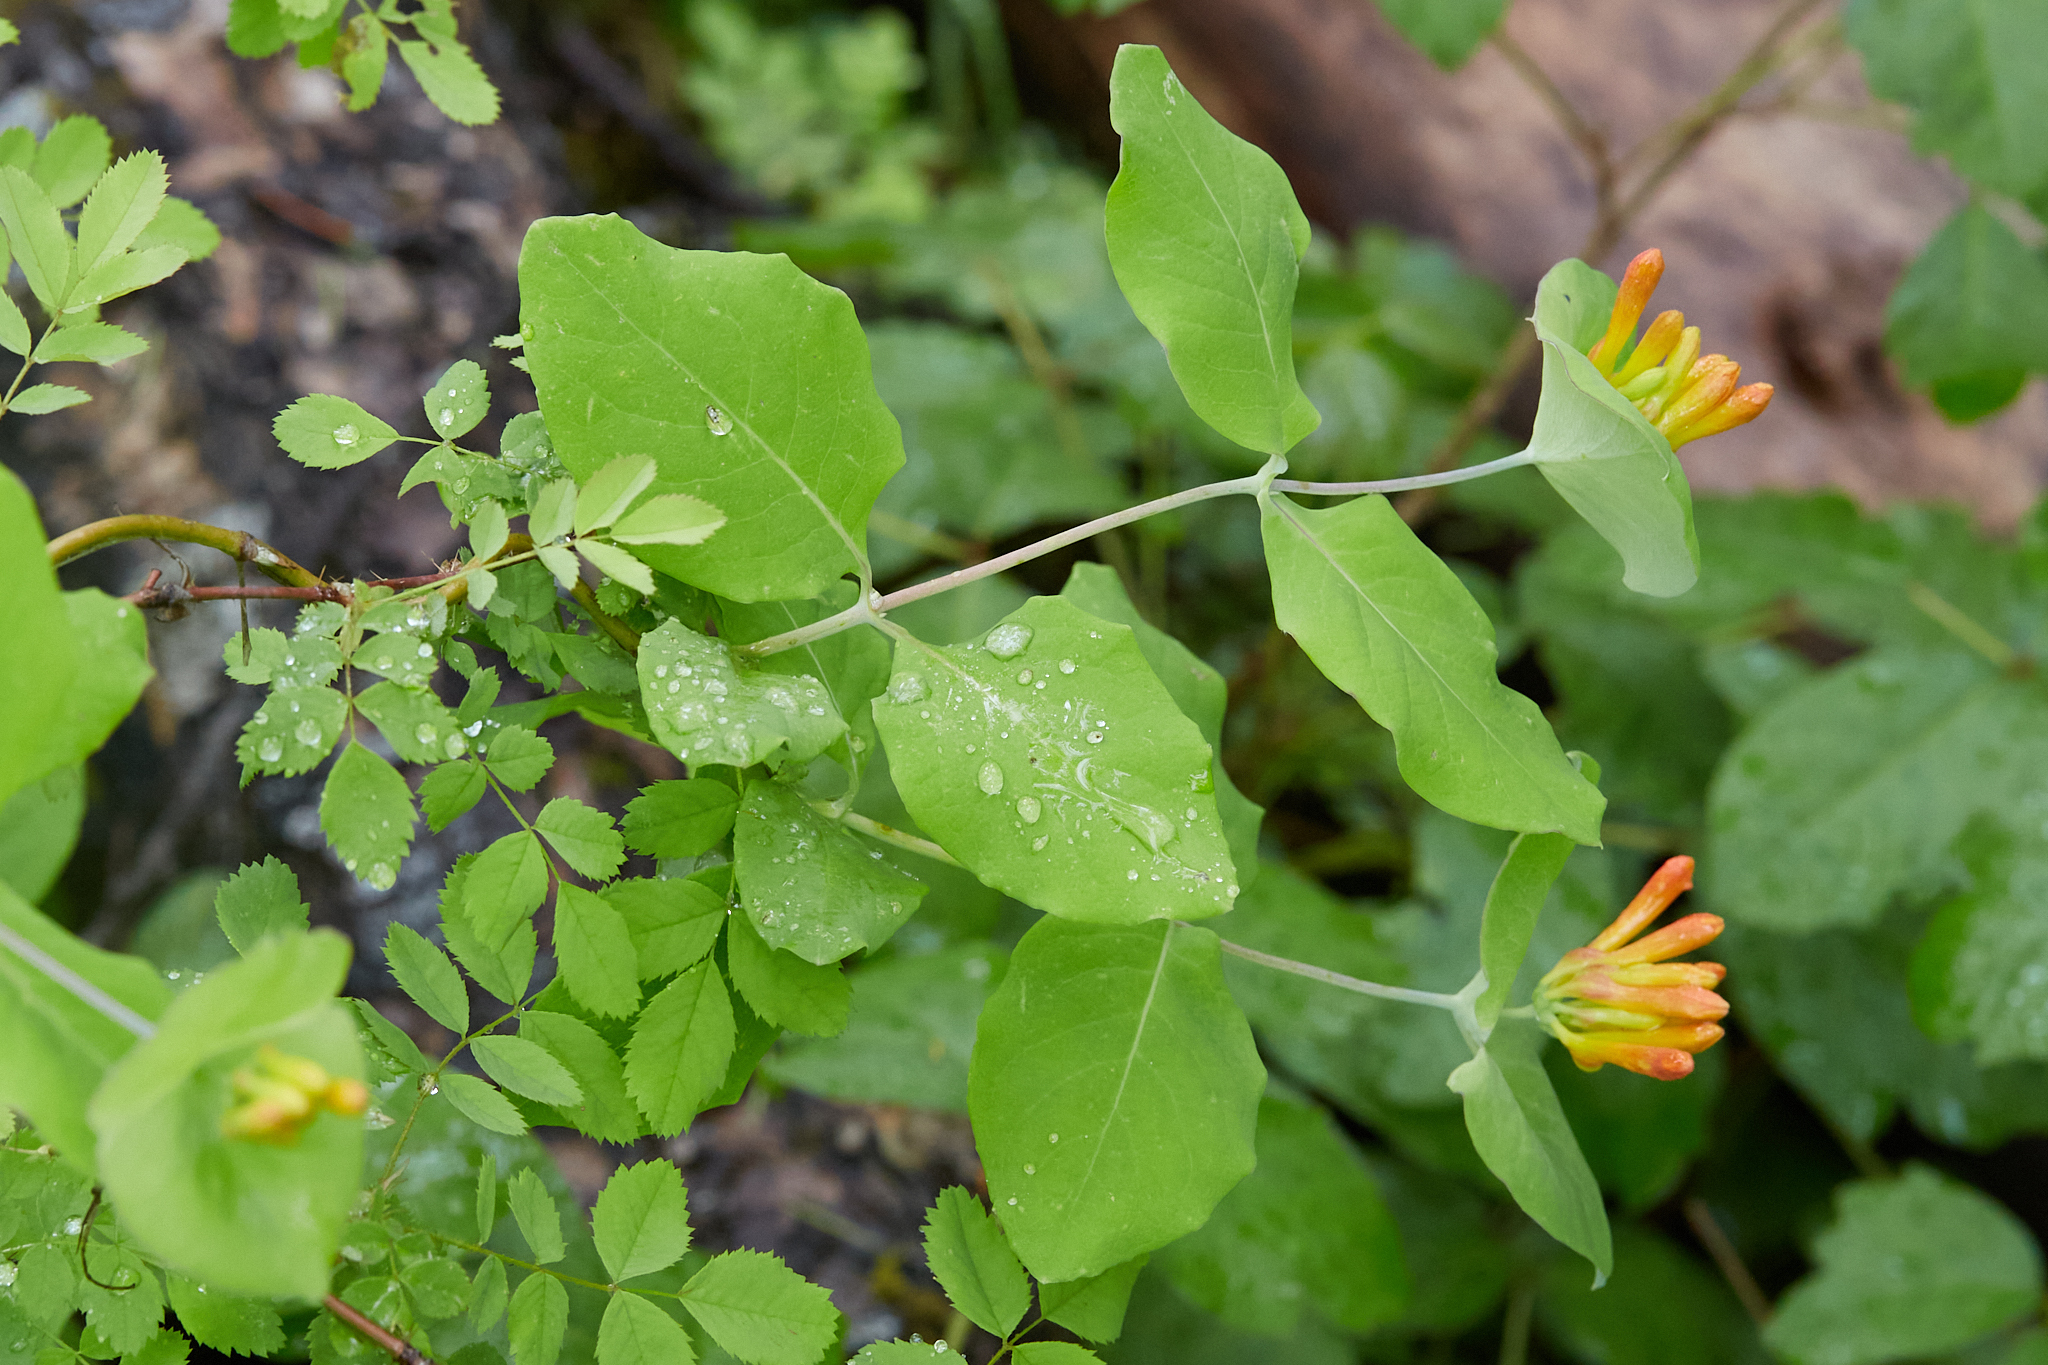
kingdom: Plantae
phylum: Tracheophyta
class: Magnoliopsida
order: Dipsacales
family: Caprifoliaceae
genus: Lonicera
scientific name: Lonicera ciliosa
